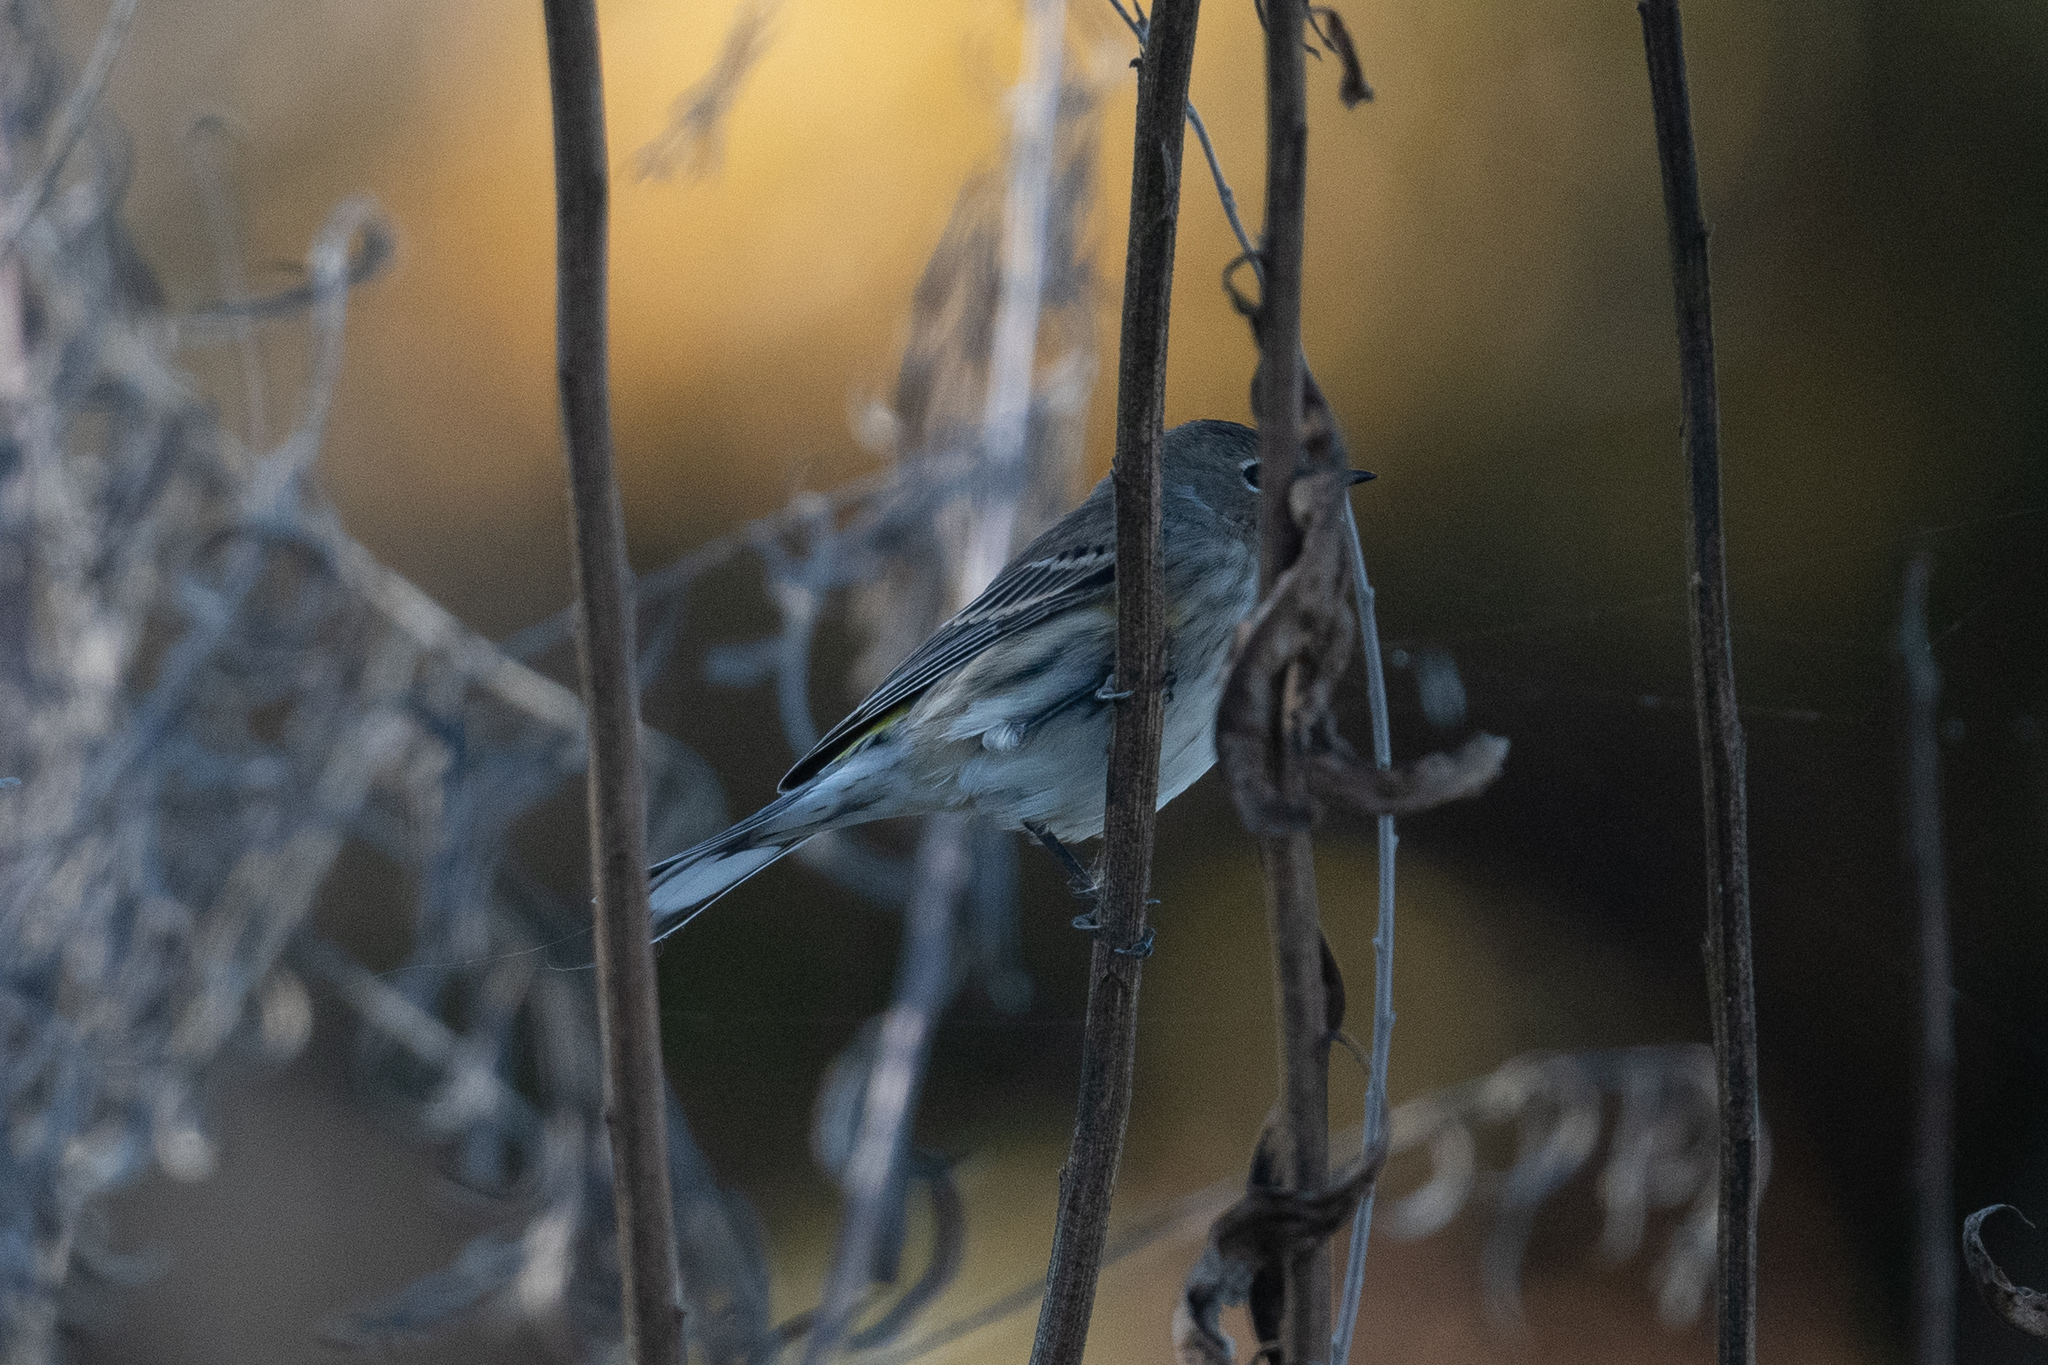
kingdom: Animalia
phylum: Chordata
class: Aves
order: Passeriformes
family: Parulidae
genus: Setophaga
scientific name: Setophaga coronata
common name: Myrtle warbler
